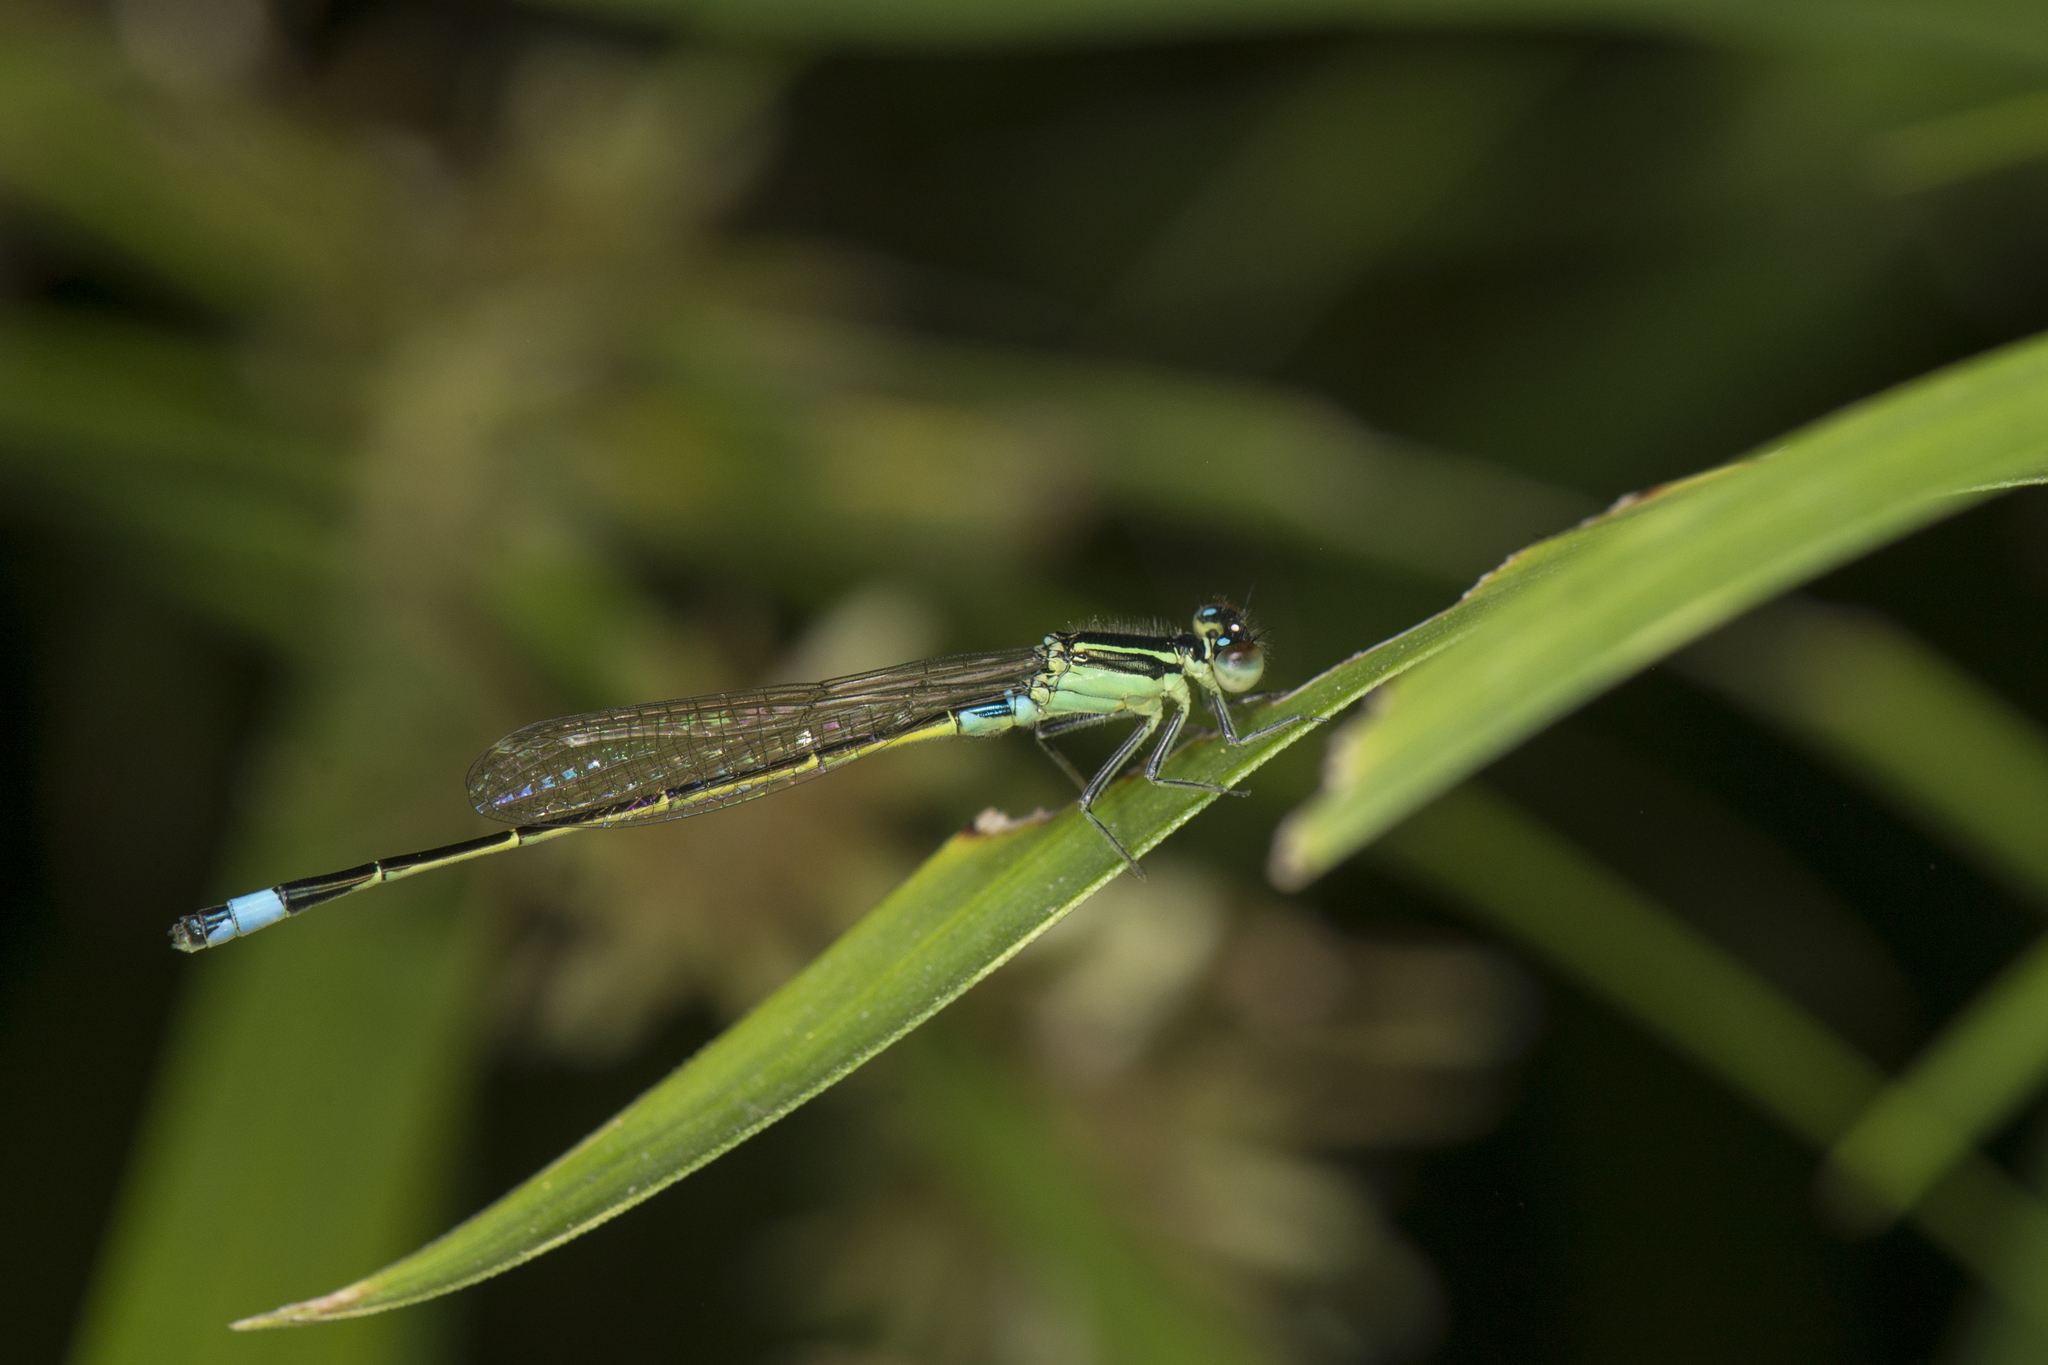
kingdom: Animalia
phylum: Arthropoda
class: Insecta
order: Odonata
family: Coenagrionidae
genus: Ischnura
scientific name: Ischnura senegalensis
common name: Tropical bluetail
